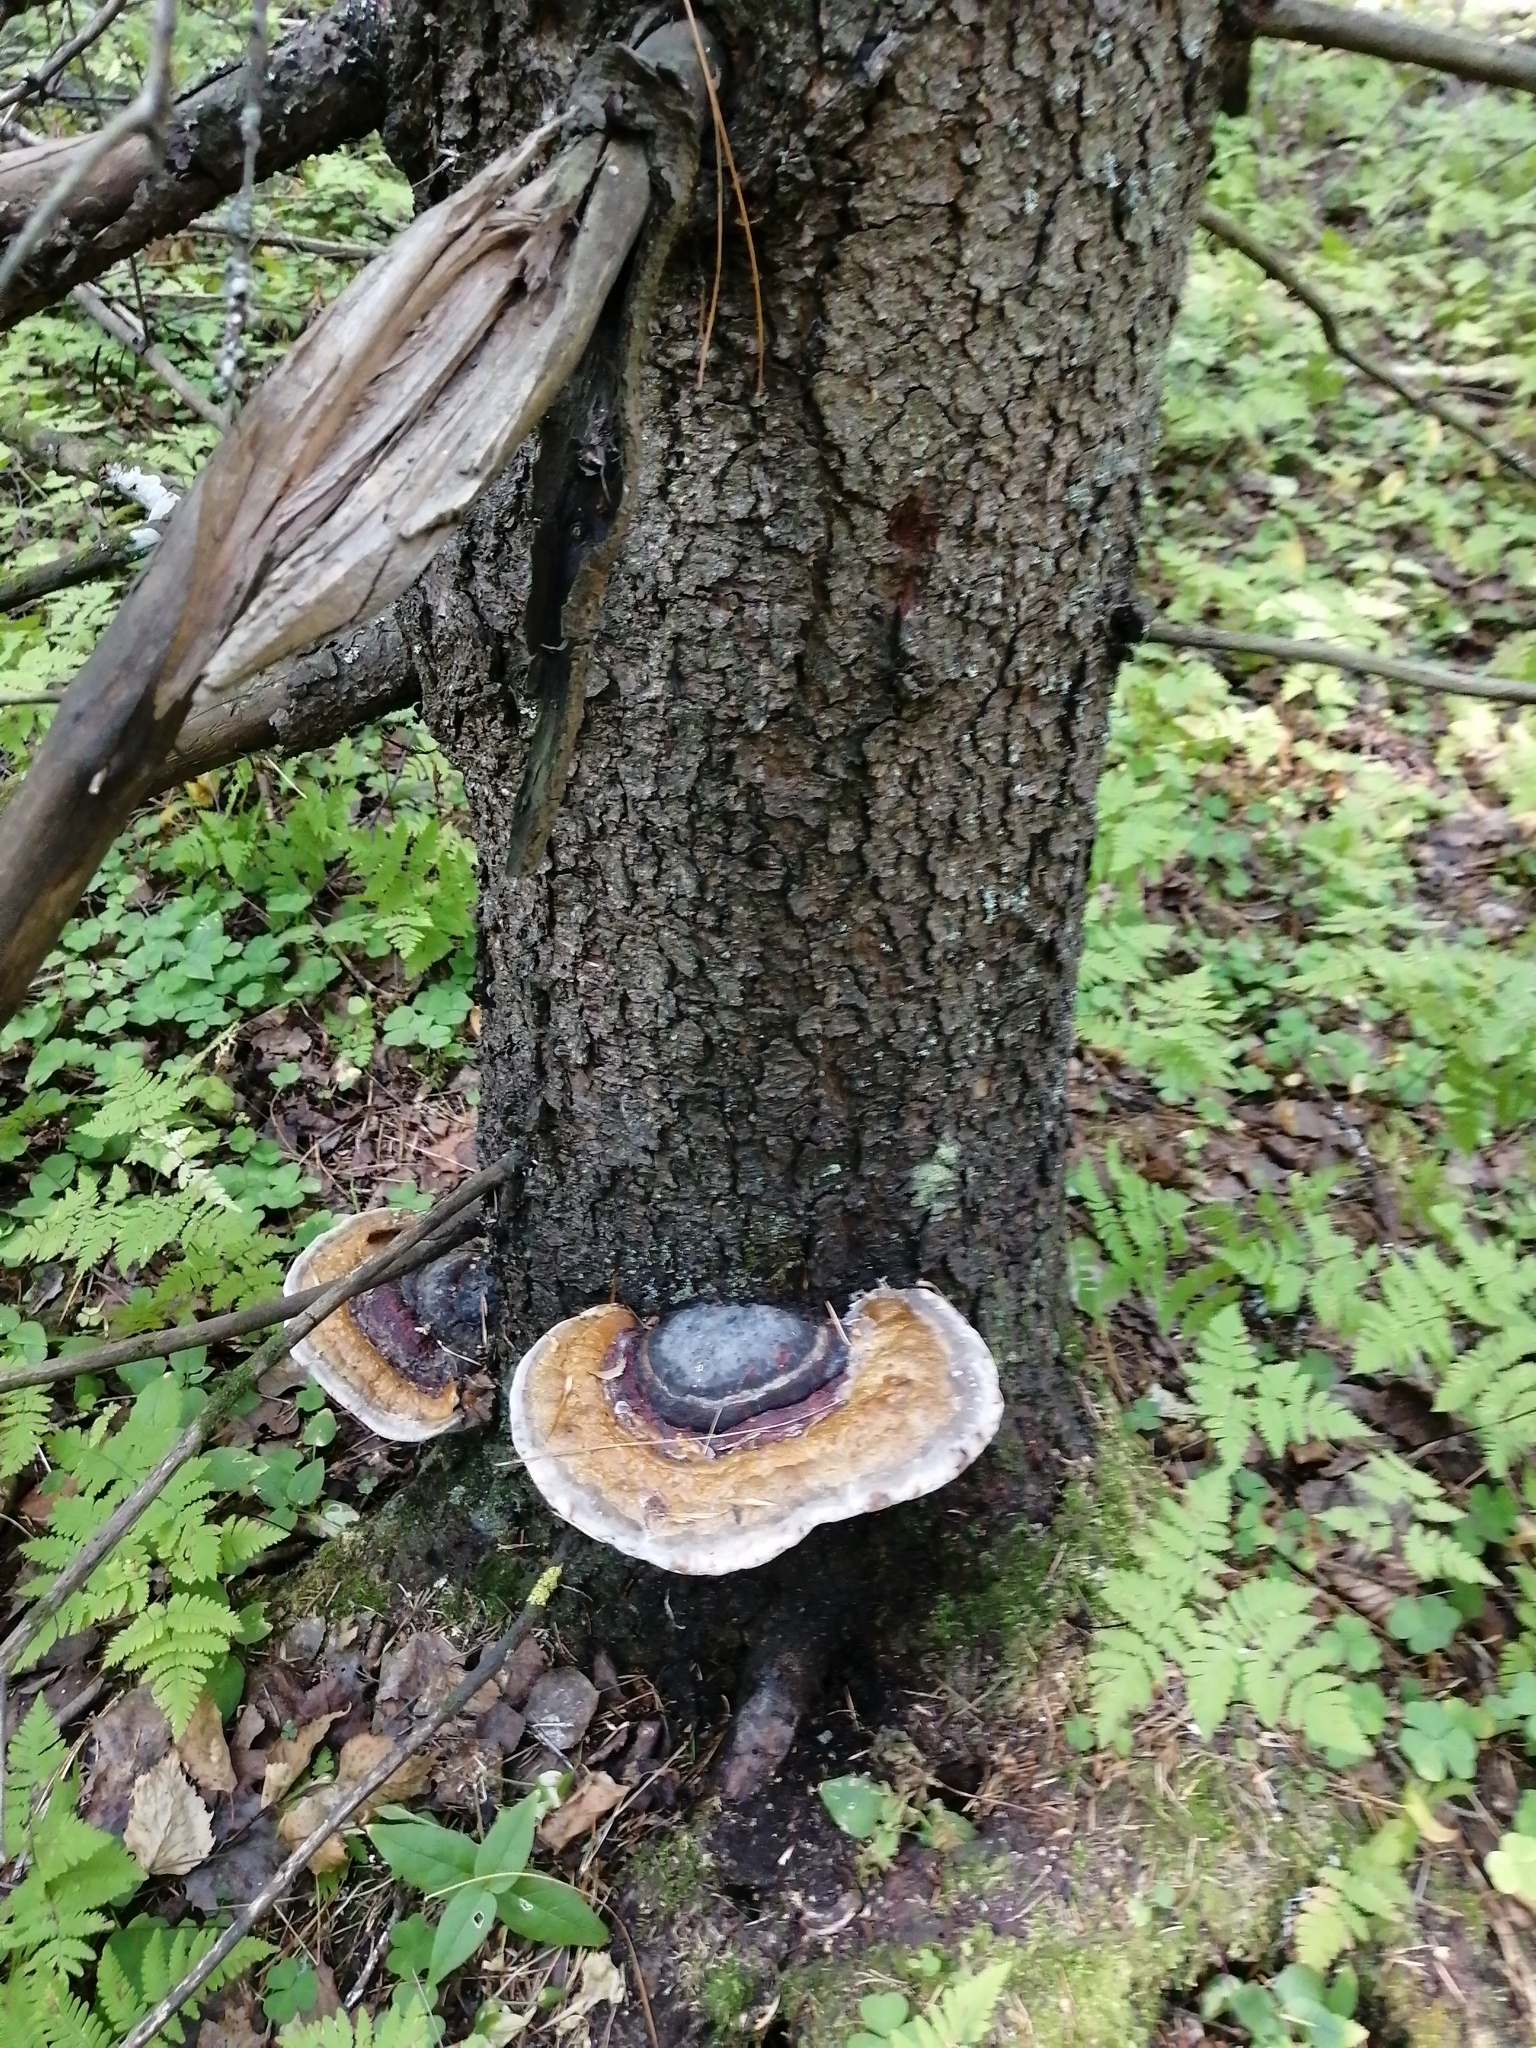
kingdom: Fungi
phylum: Basidiomycota
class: Agaricomycetes
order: Polyporales
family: Fomitopsidaceae
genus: Fomitopsis
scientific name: Fomitopsis pinicola
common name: Red-belted bracket
